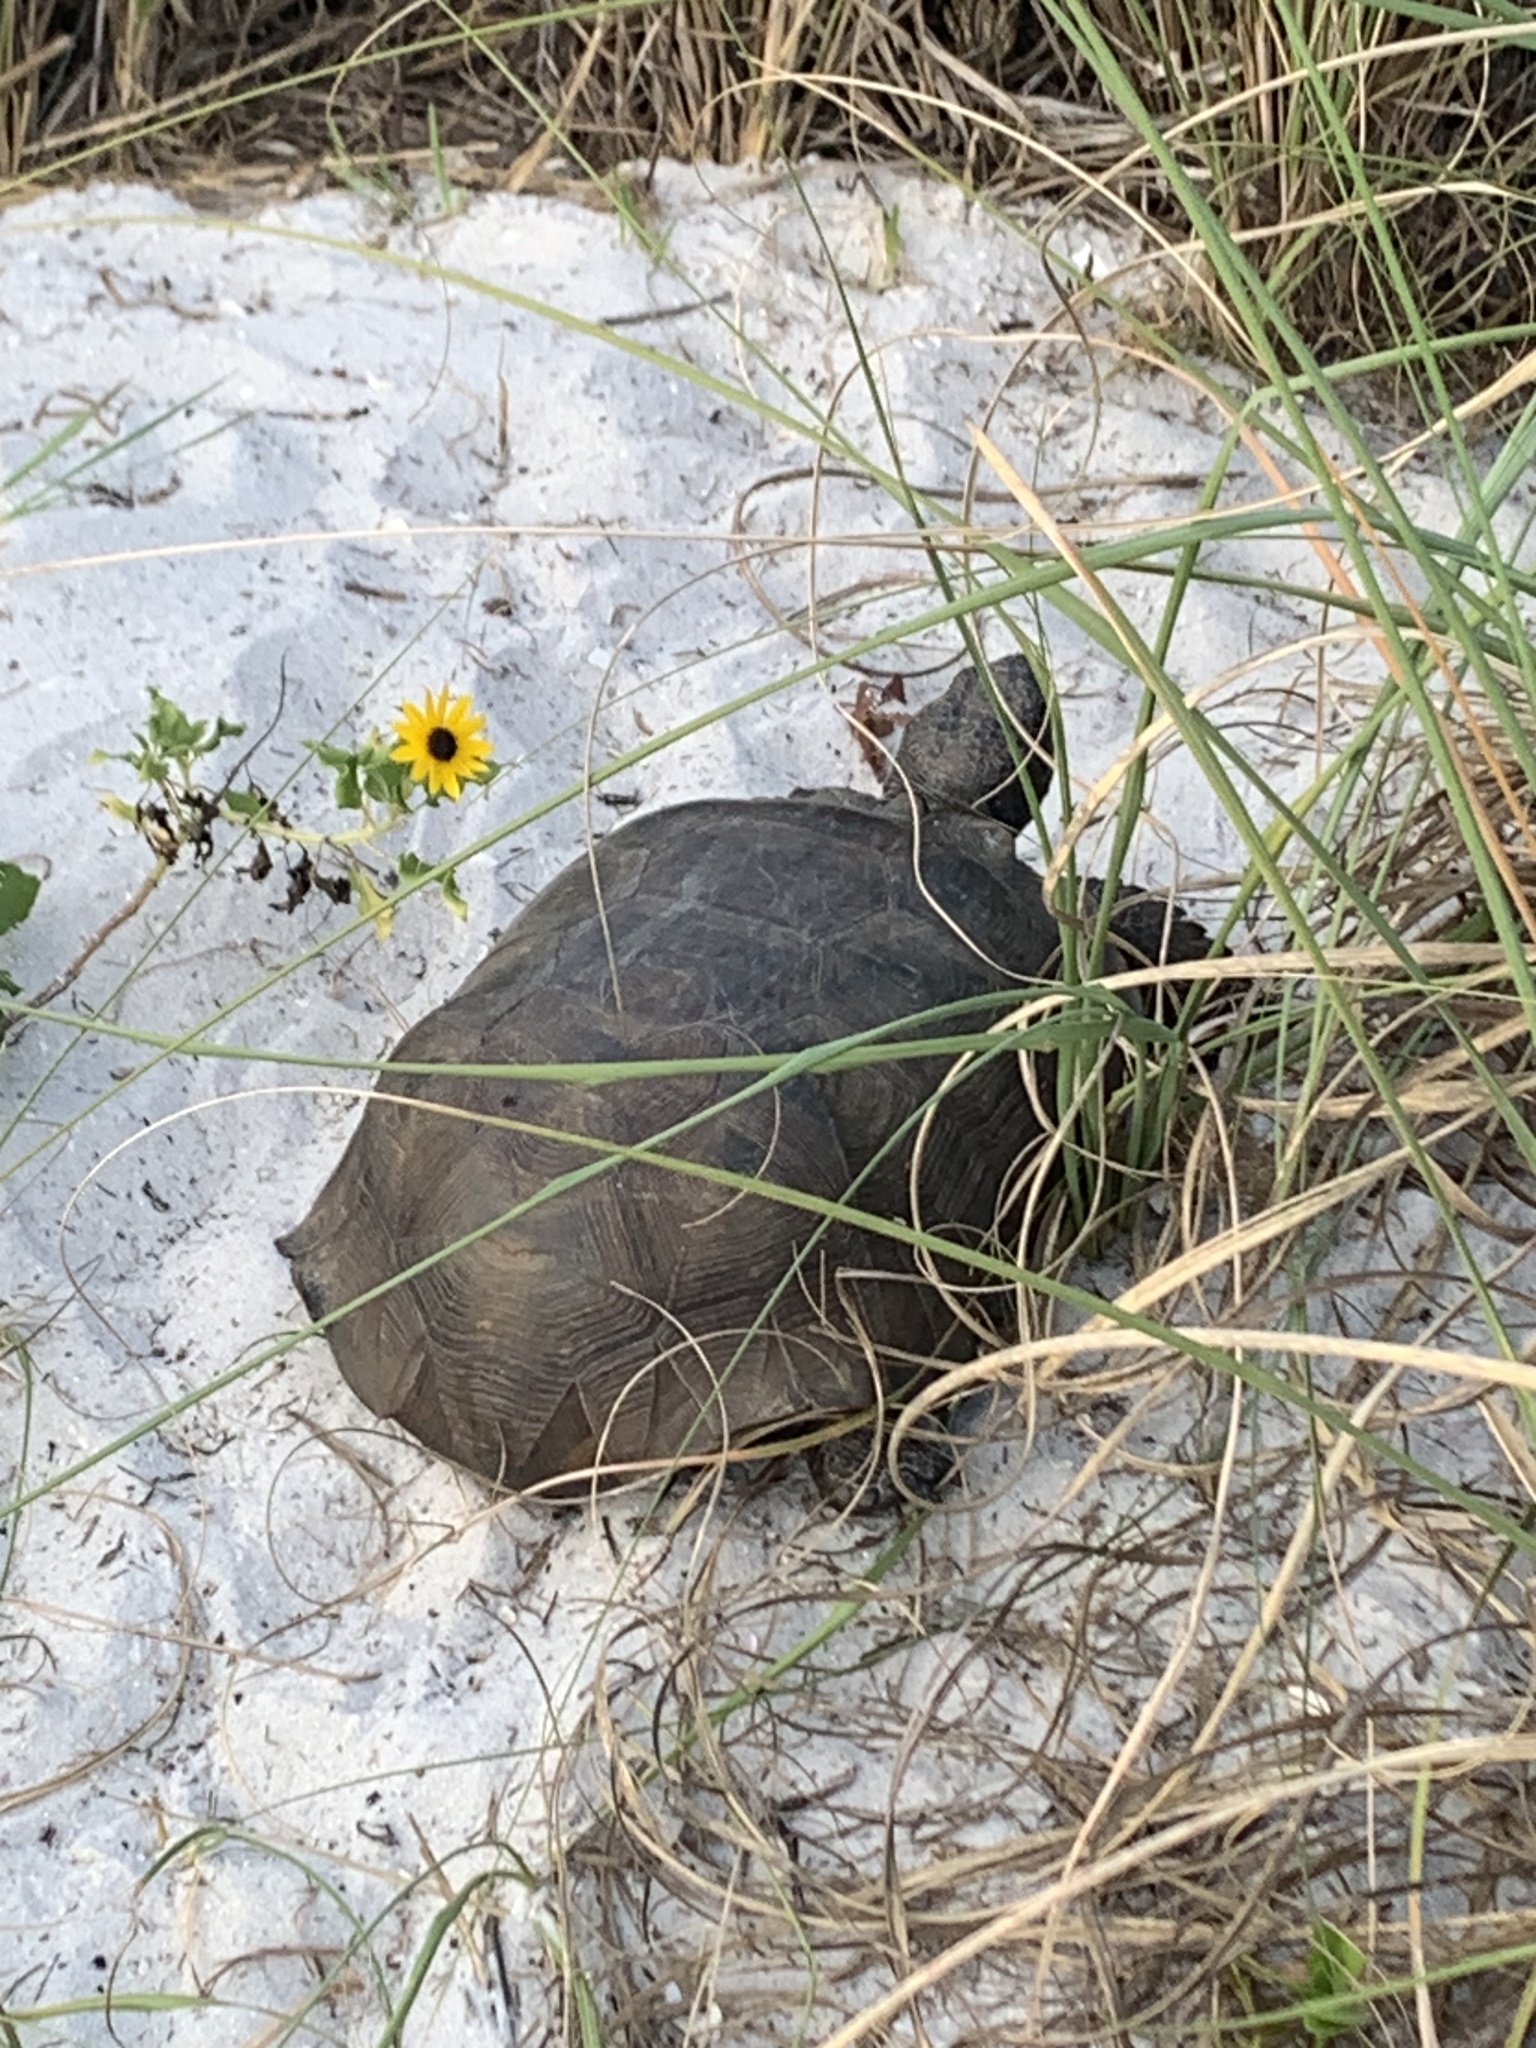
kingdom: Animalia
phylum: Chordata
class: Testudines
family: Testudinidae
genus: Gopherus
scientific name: Gopherus polyphemus
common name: Florida gopher tortoise
